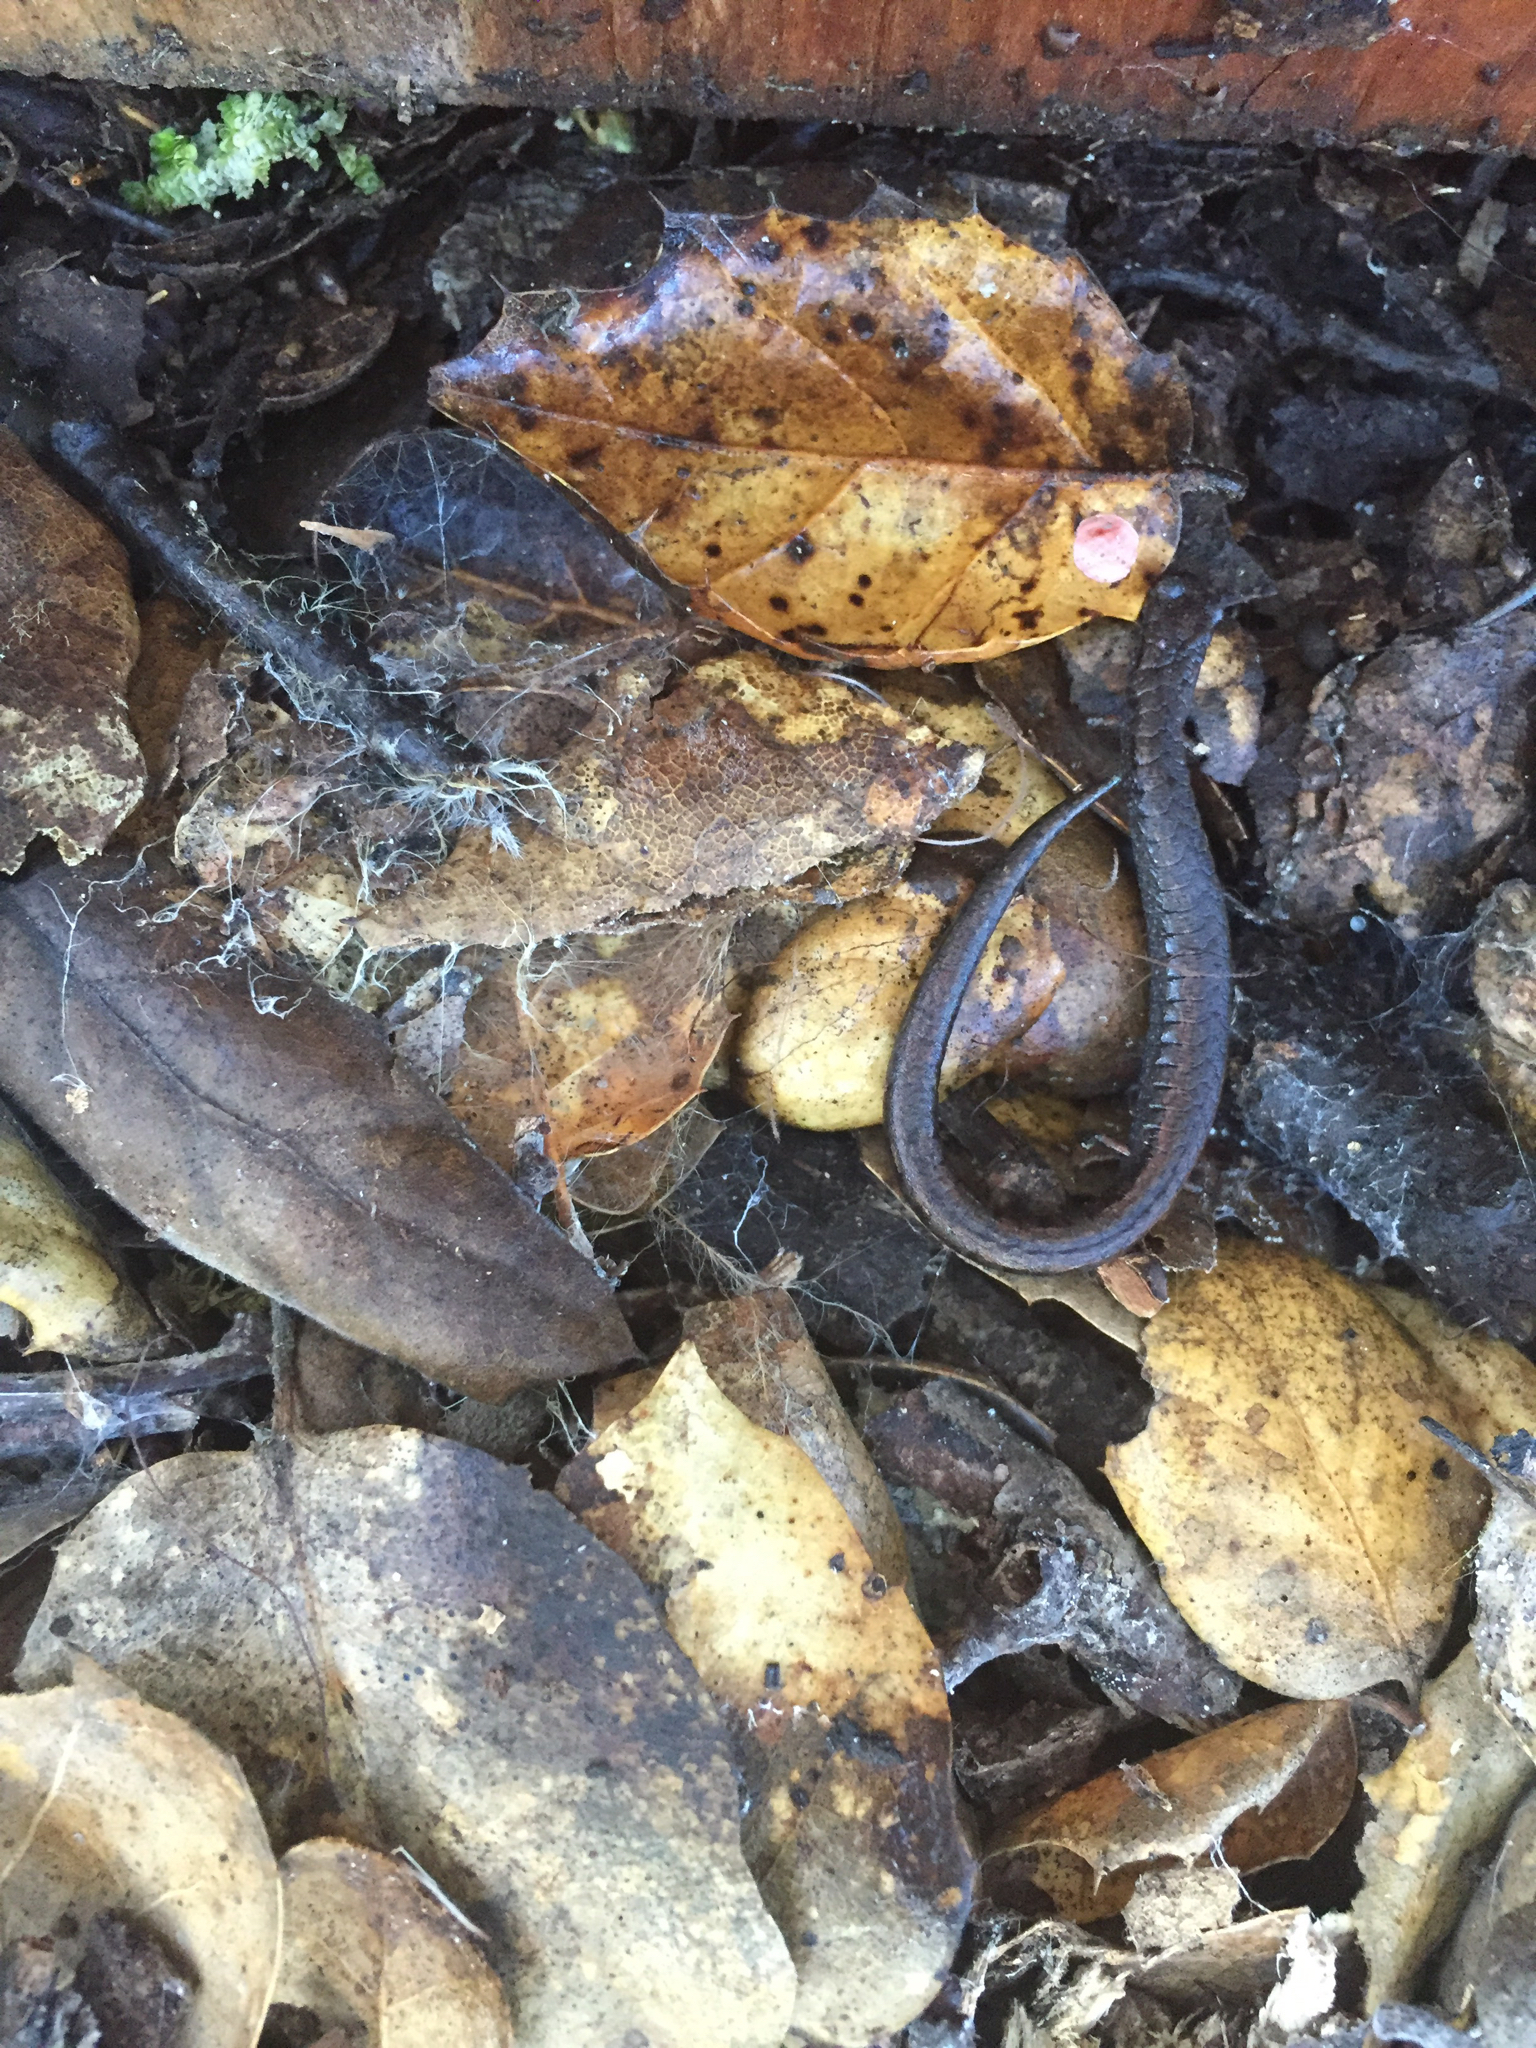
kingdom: Animalia
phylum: Chordata
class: Amphibia
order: Caudata
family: Plethodontidae
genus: Batrachoseps
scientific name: Batrachoseps attenuatus
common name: California slender salamander
